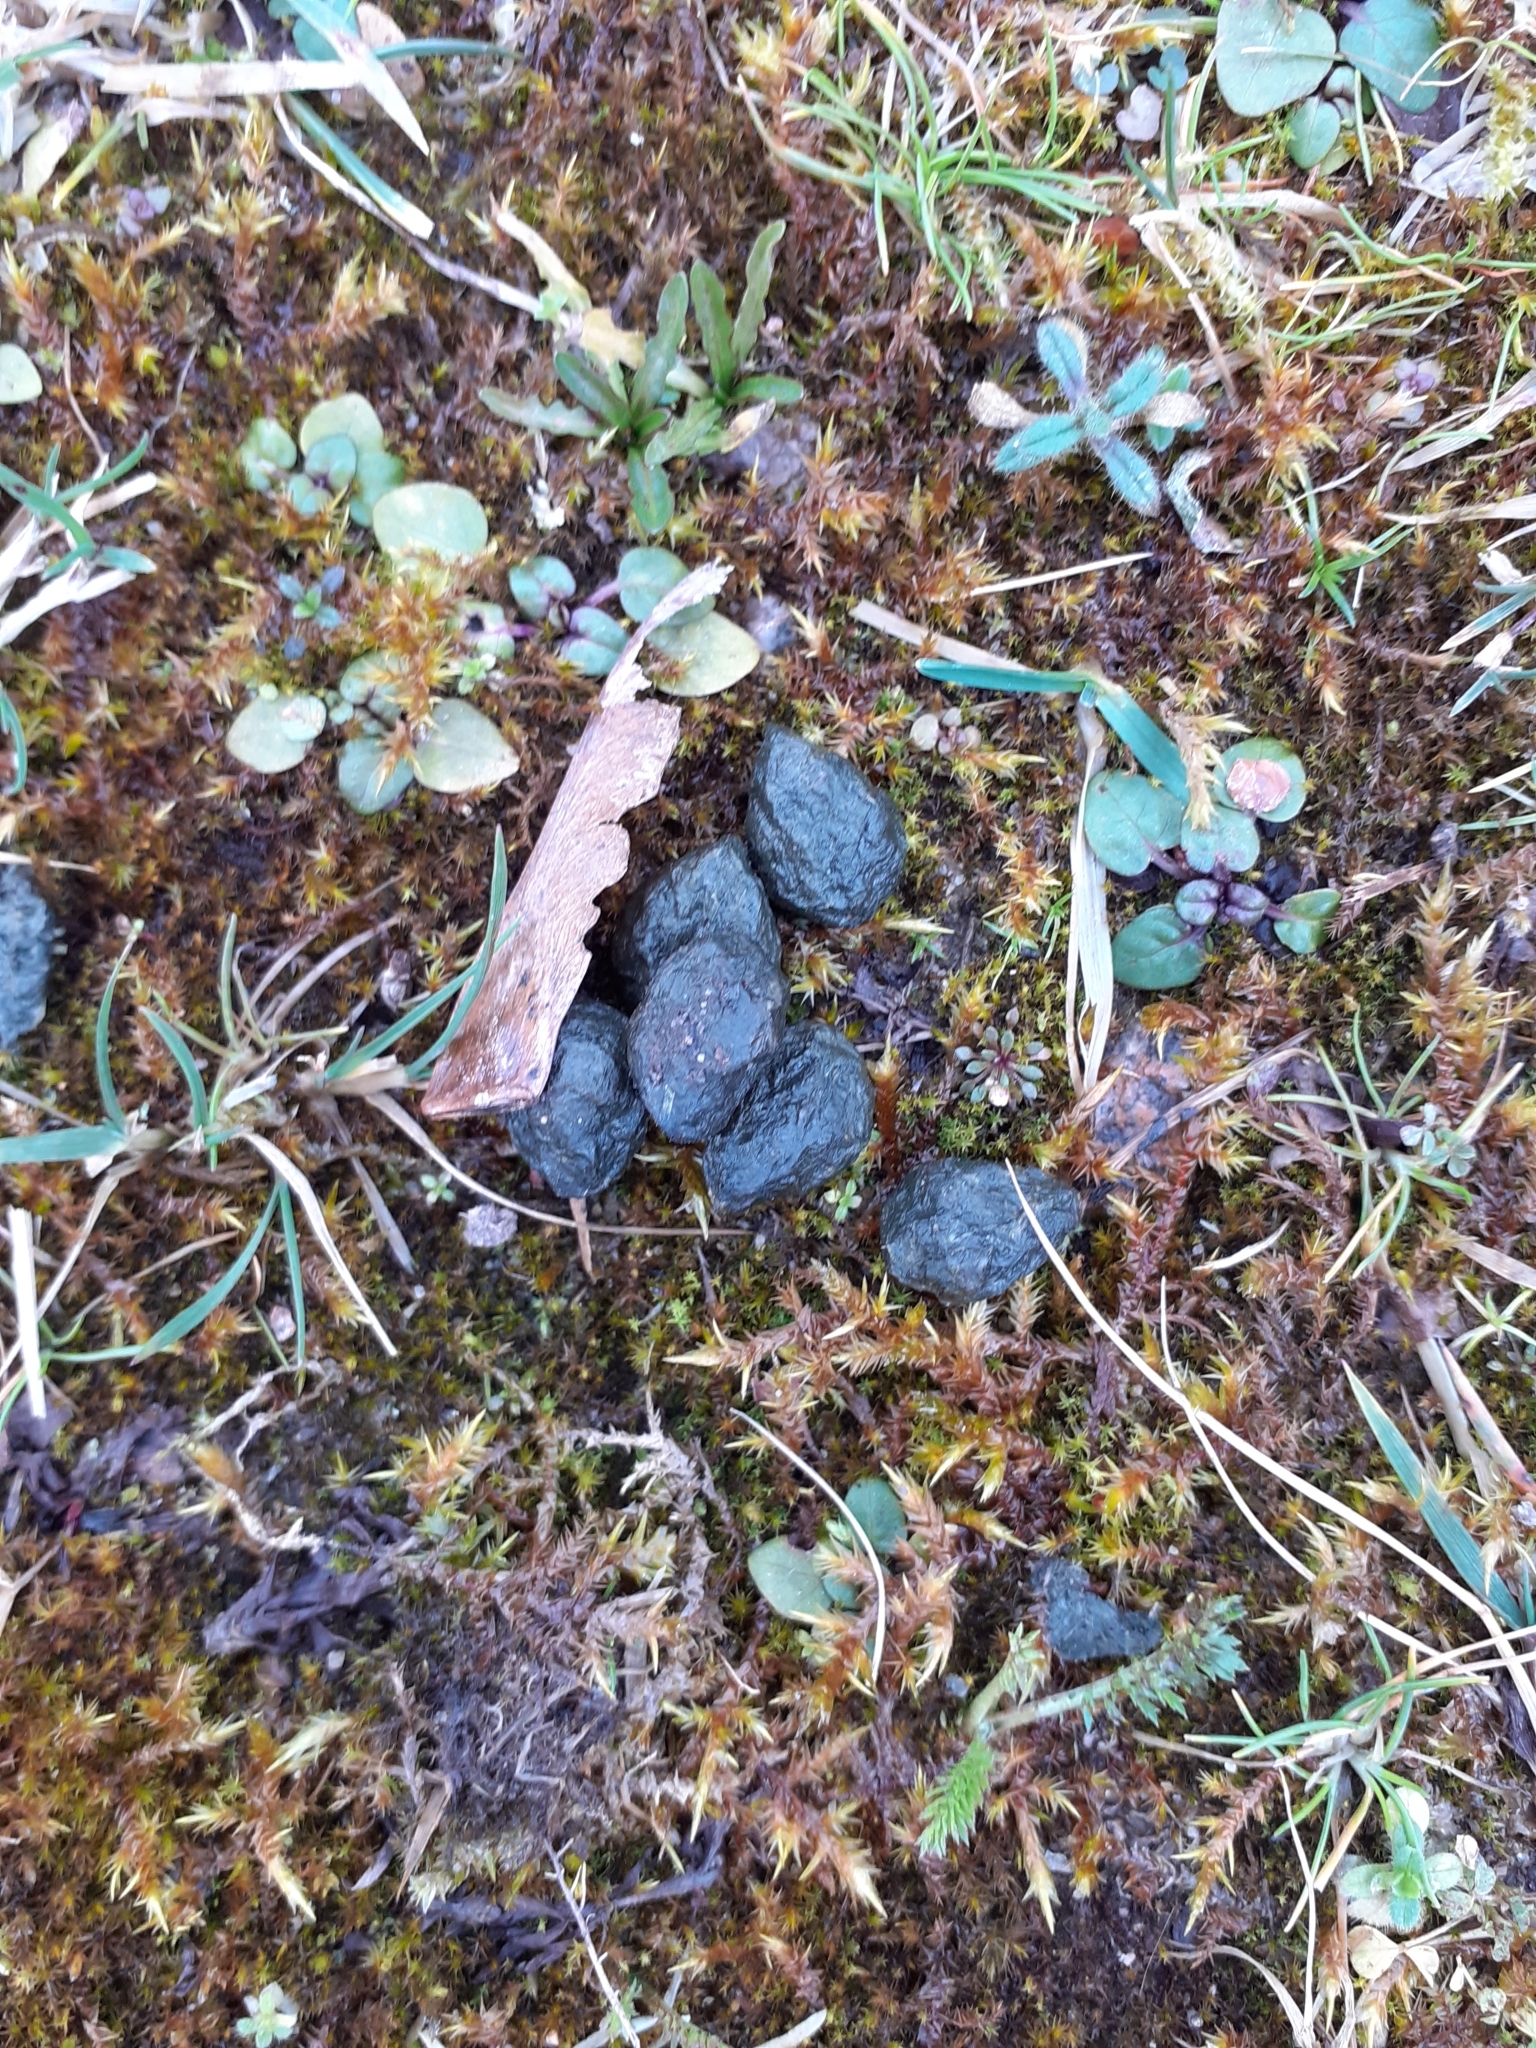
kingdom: Animalia
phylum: Chordata
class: Mammalia
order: Lagomorpha
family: Leporidae
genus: Oryctolagus
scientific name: Oryctolagus cuniculus
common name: European rabbit
